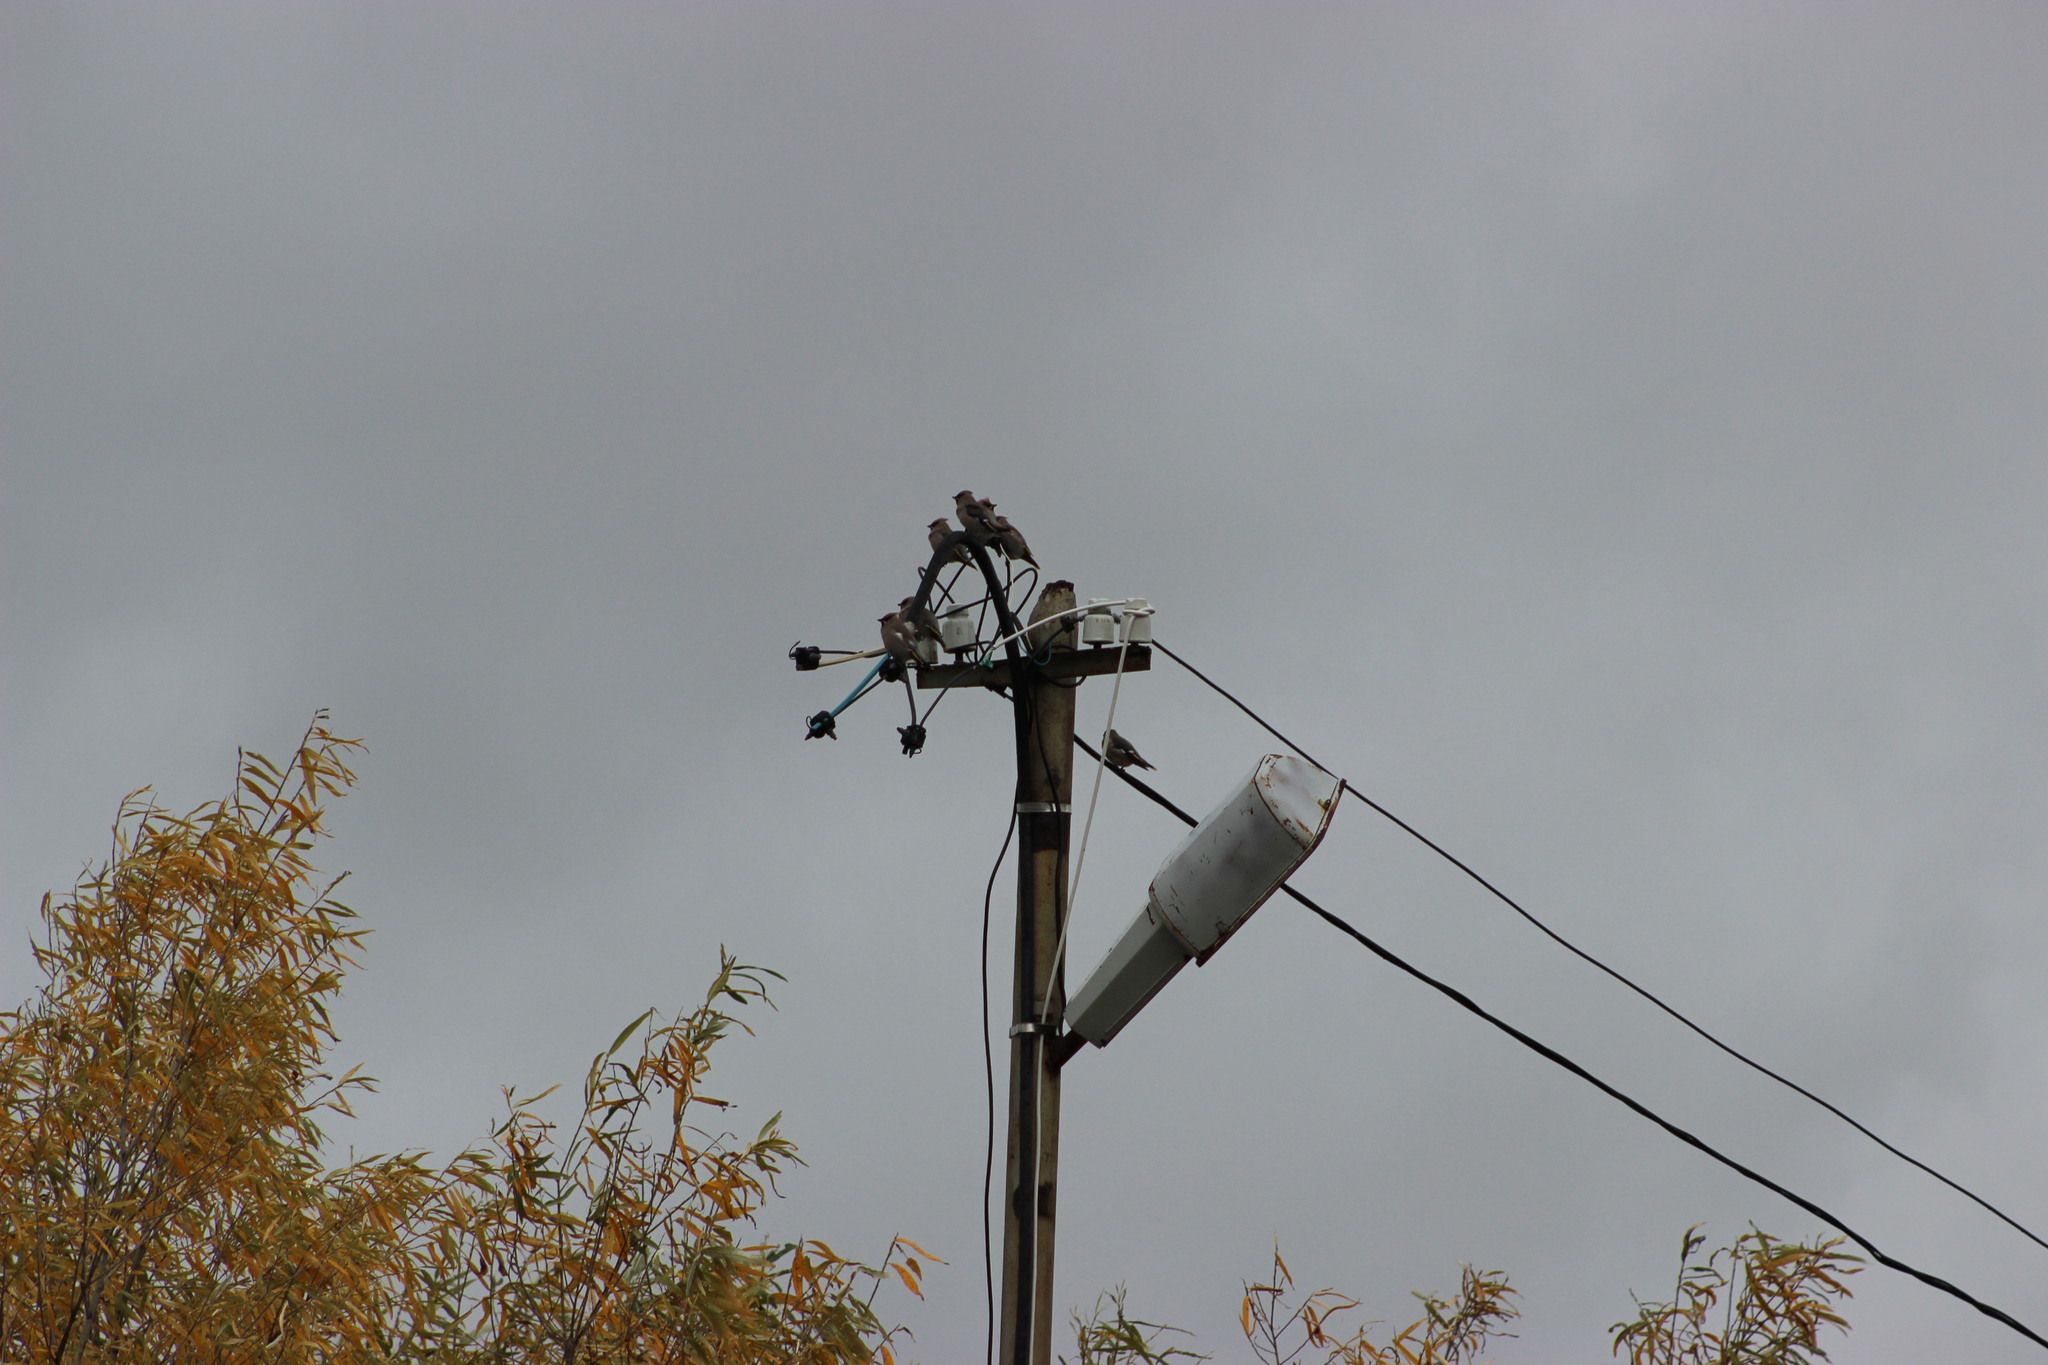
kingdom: Animalia
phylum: Chordata
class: Aves
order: Passeriformes
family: Bombycillidae
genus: Bombycilla
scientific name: Bombycilla garrulus
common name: Bohemian waxwing
